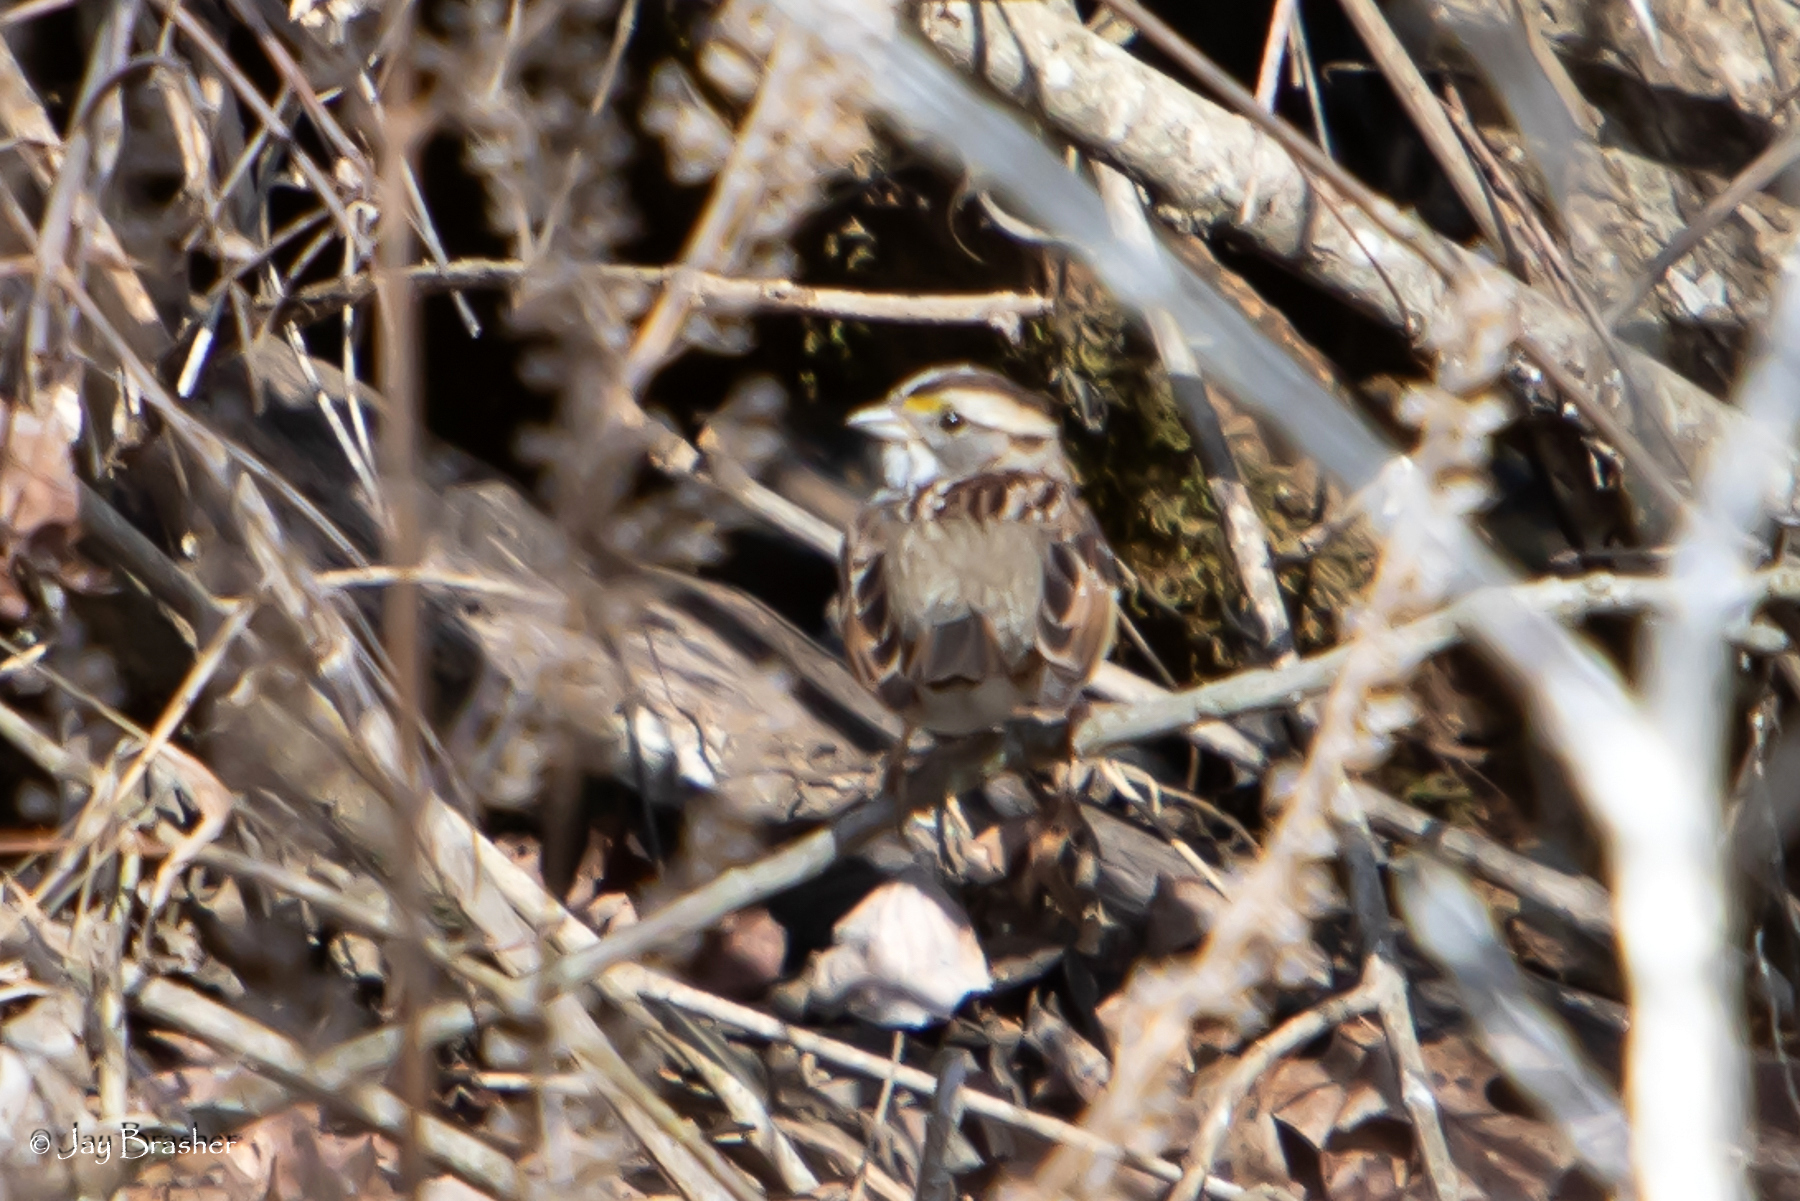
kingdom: Animalia
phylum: Chordata
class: Aves
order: Passeriformes
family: Passerellidae
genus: Zonotrichia
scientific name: Zonotrichia albicollis
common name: White-throated sparrow
